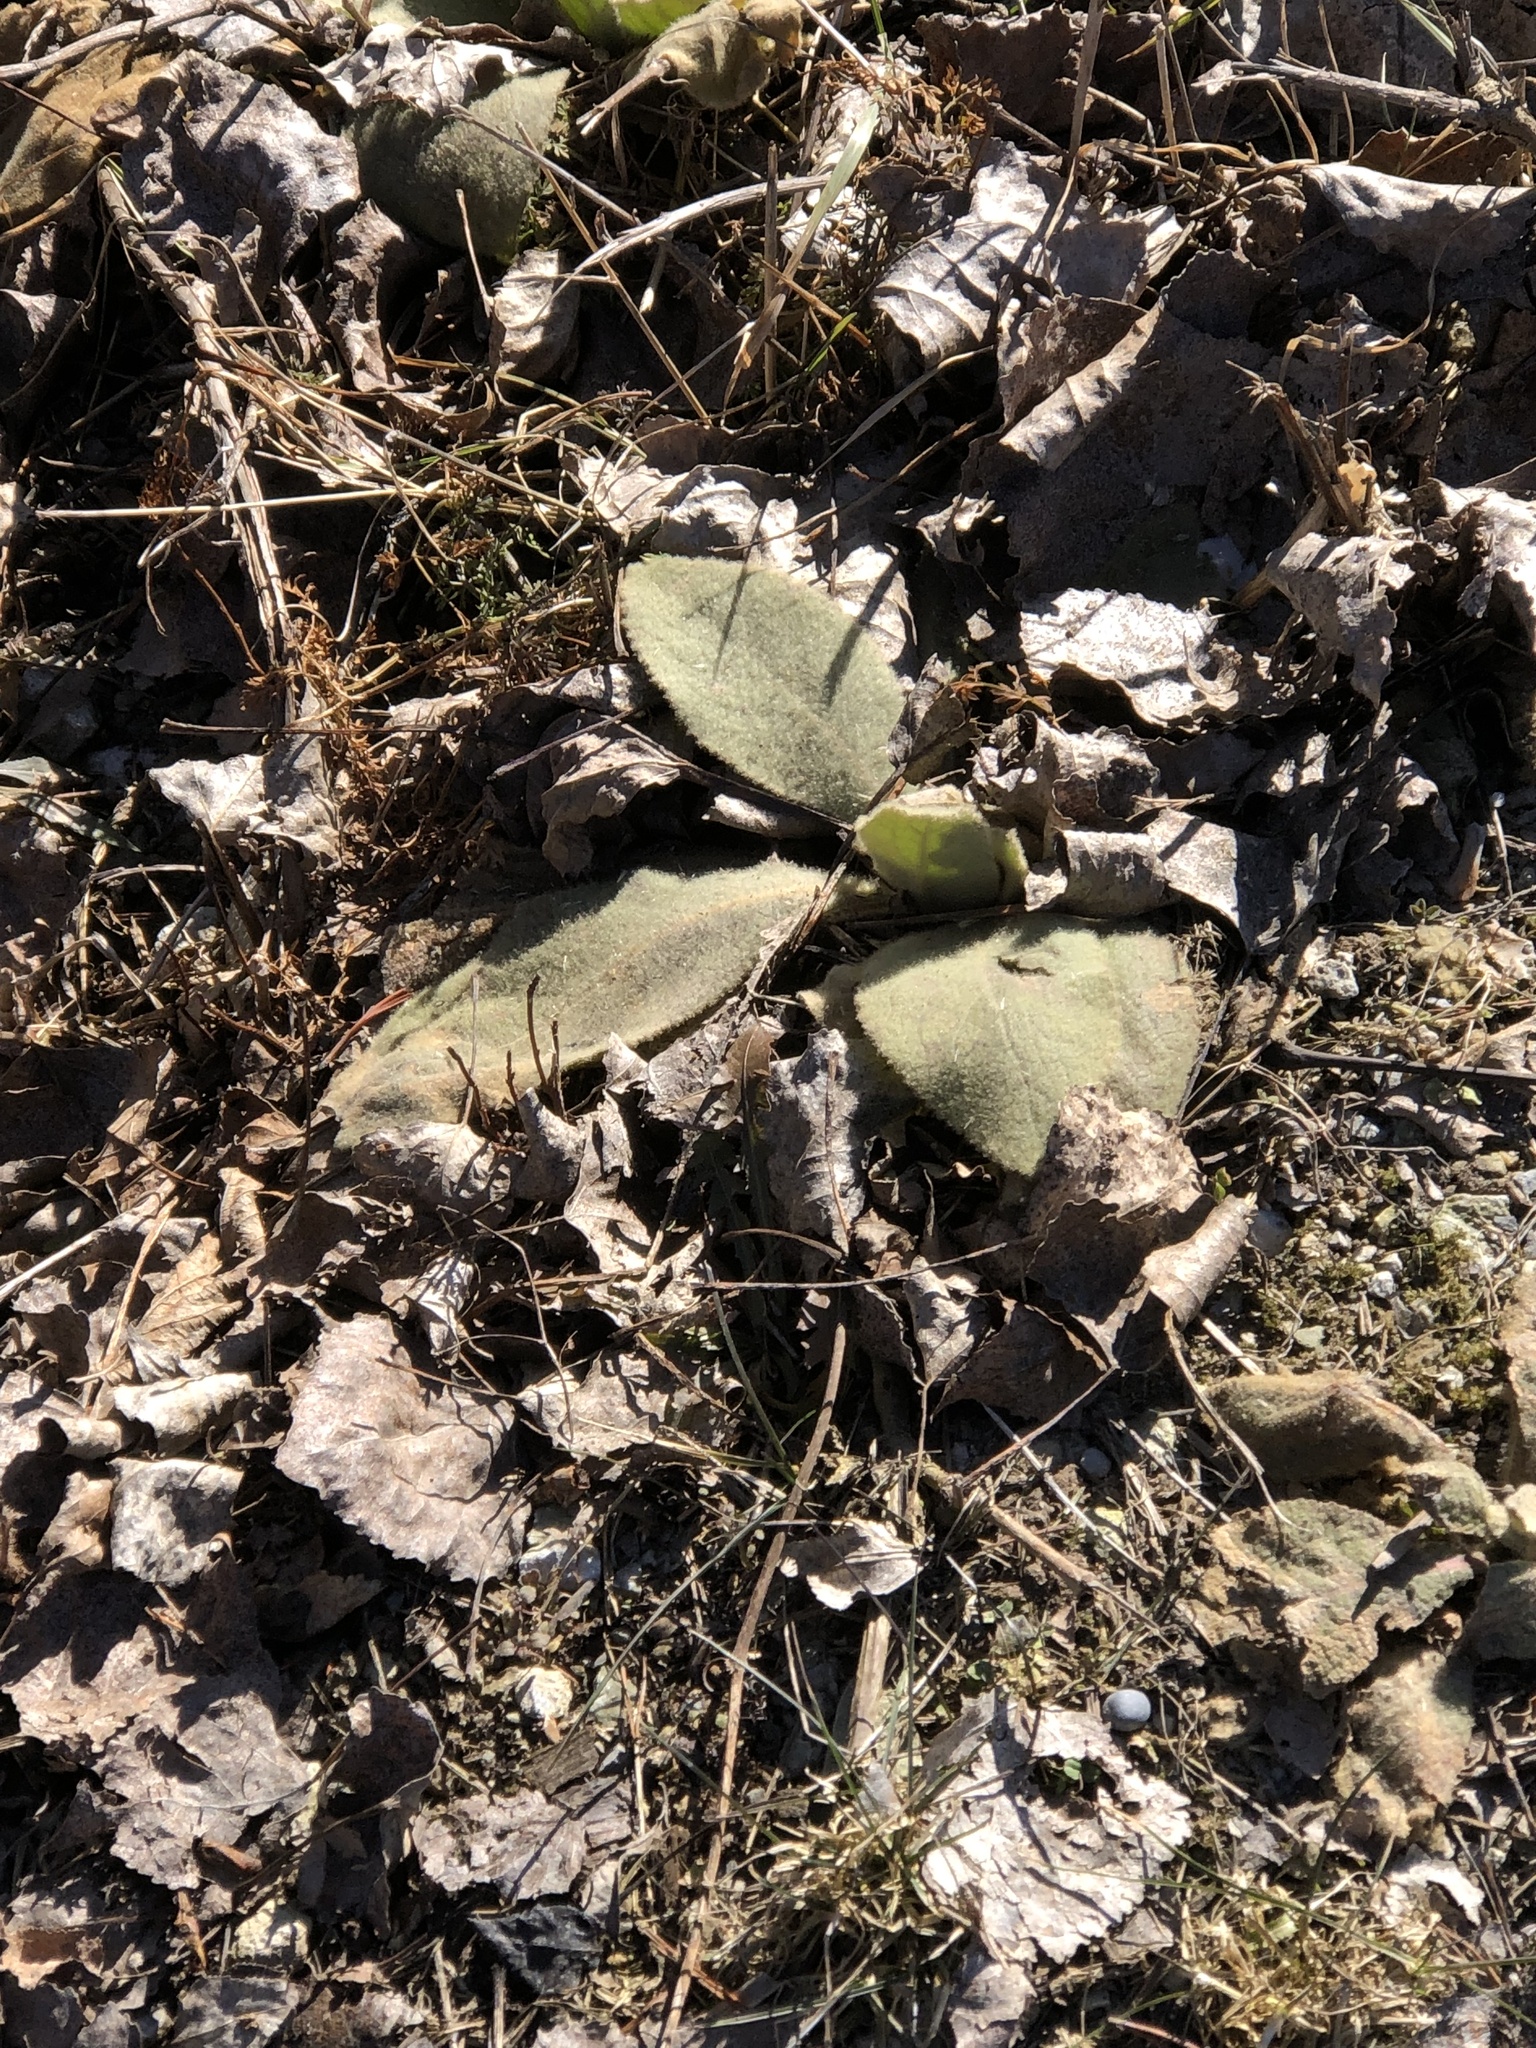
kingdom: Plantae
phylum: Tracheophyta
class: Magnoliopsida
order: Lamiales
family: Scrophulariaceae
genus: Verbascum
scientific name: Verbascum thapsus
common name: Common mullein
